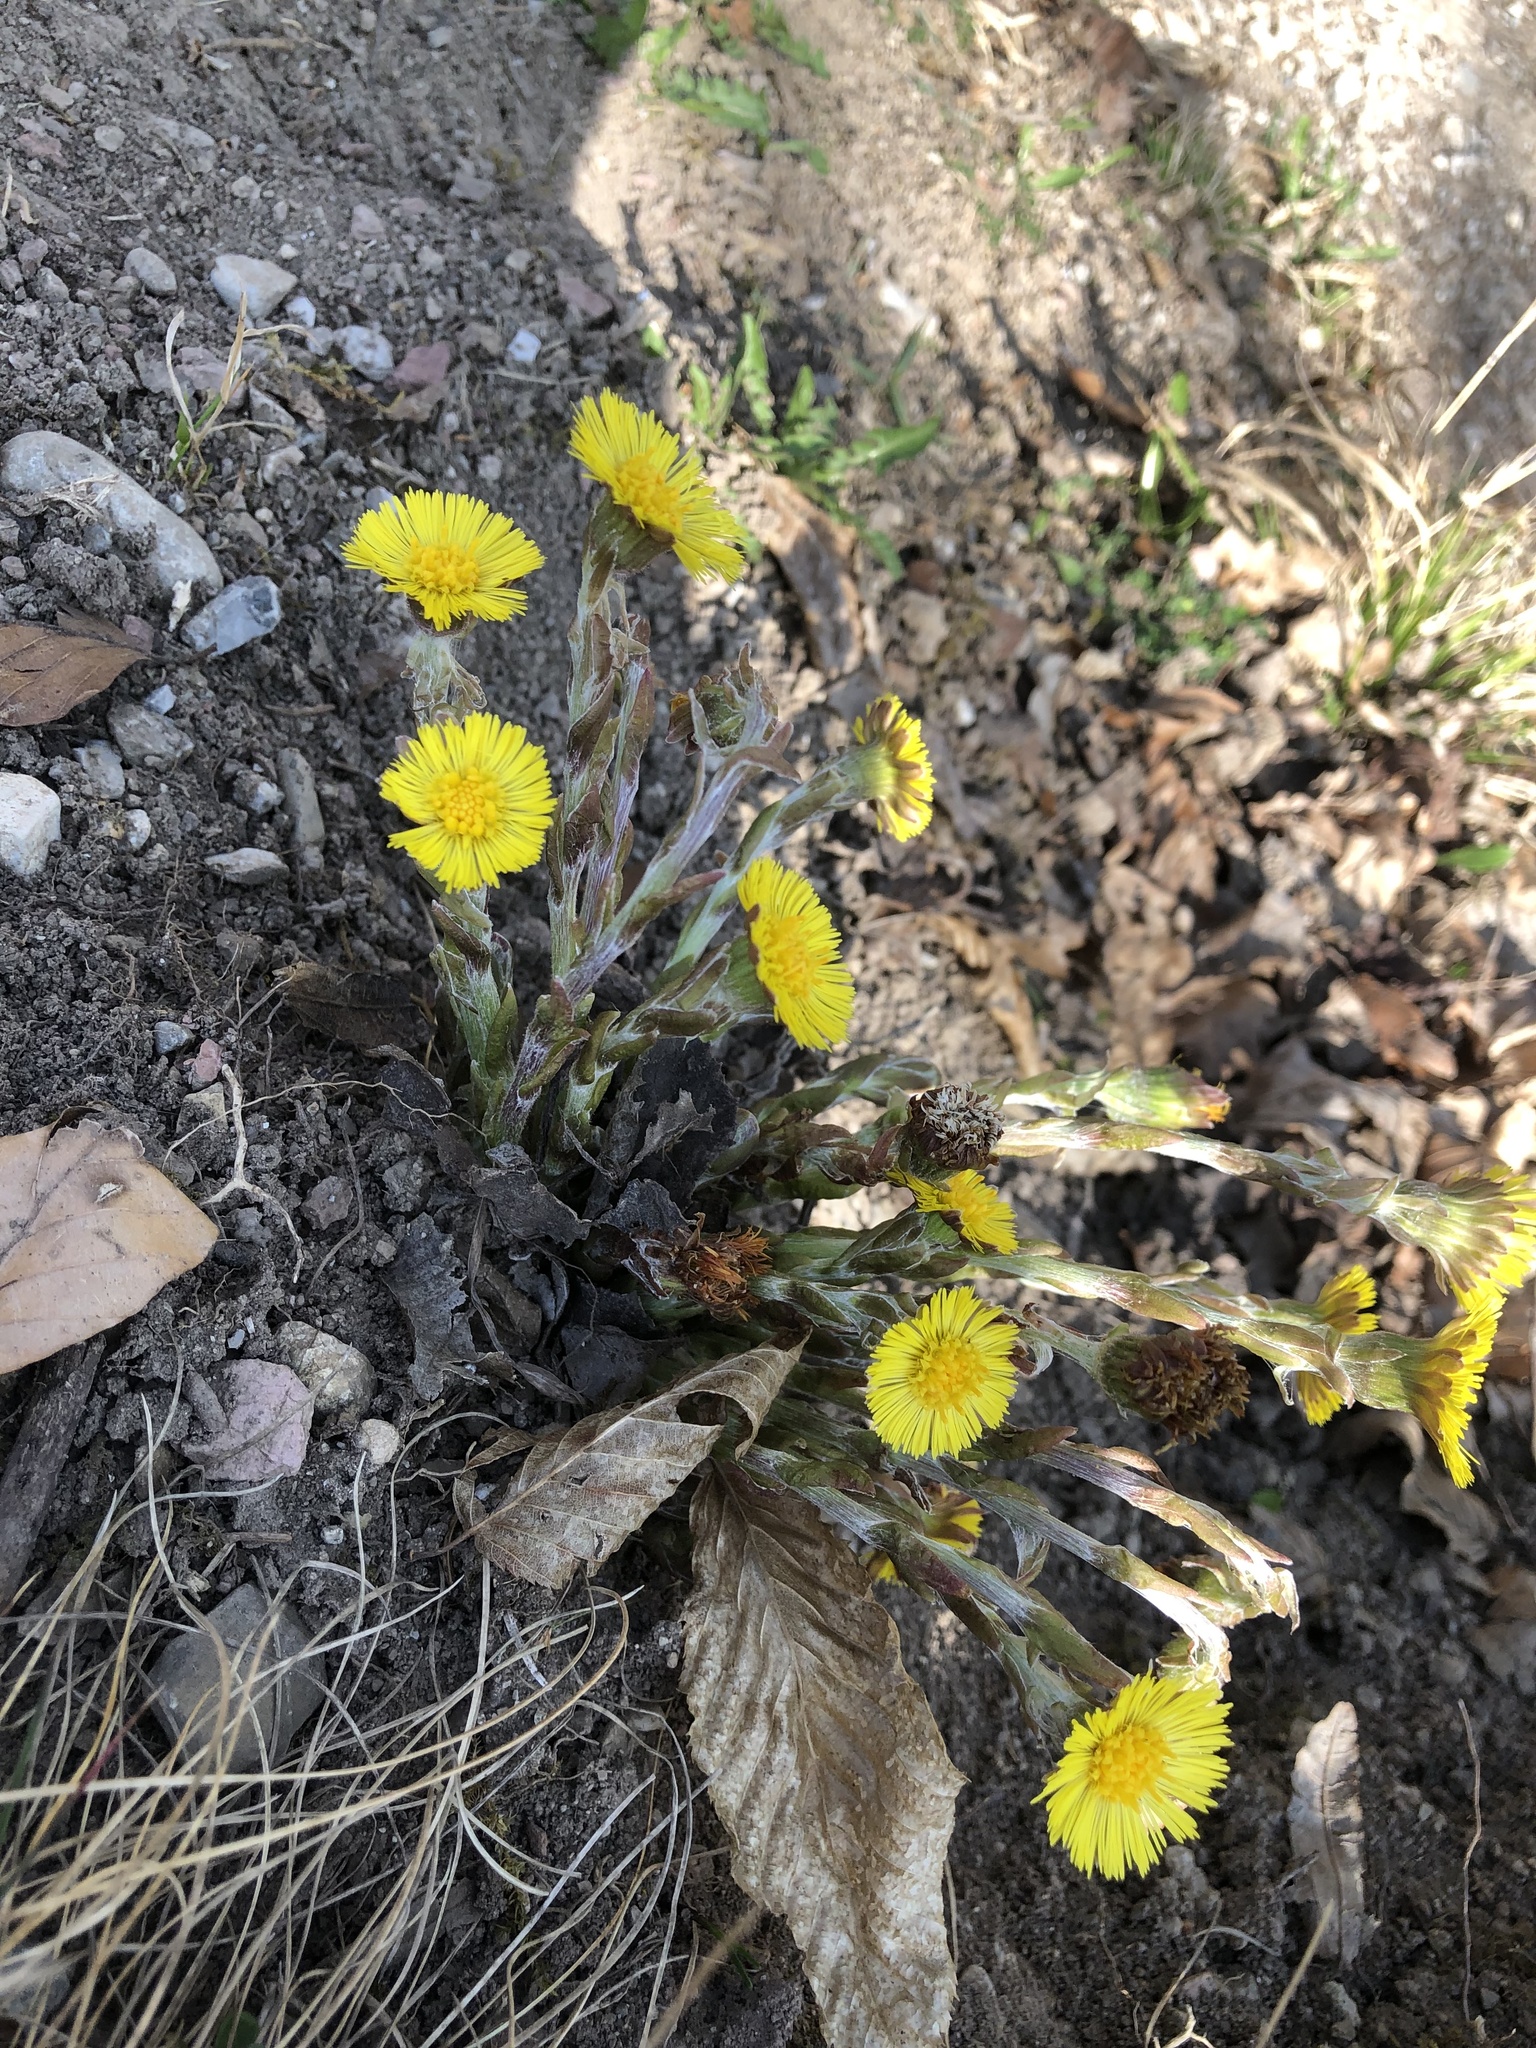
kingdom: Plantae
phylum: Tracheophyta
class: Magnoliopsida
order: Asterales
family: Asteraceae
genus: Tussilago
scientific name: Tussilago farfara
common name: Coltsfoot
